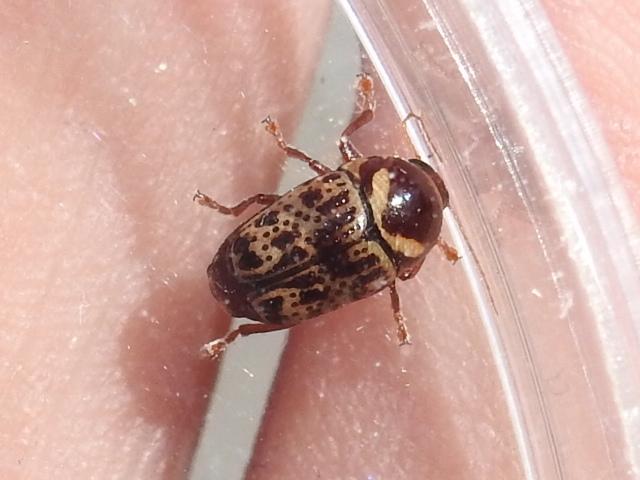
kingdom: Animalia
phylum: Arthropoda
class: Insecta
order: Coleoptera
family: Chrysomelidae
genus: Cryptocephalus
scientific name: Cryptocephalus cribripennis
